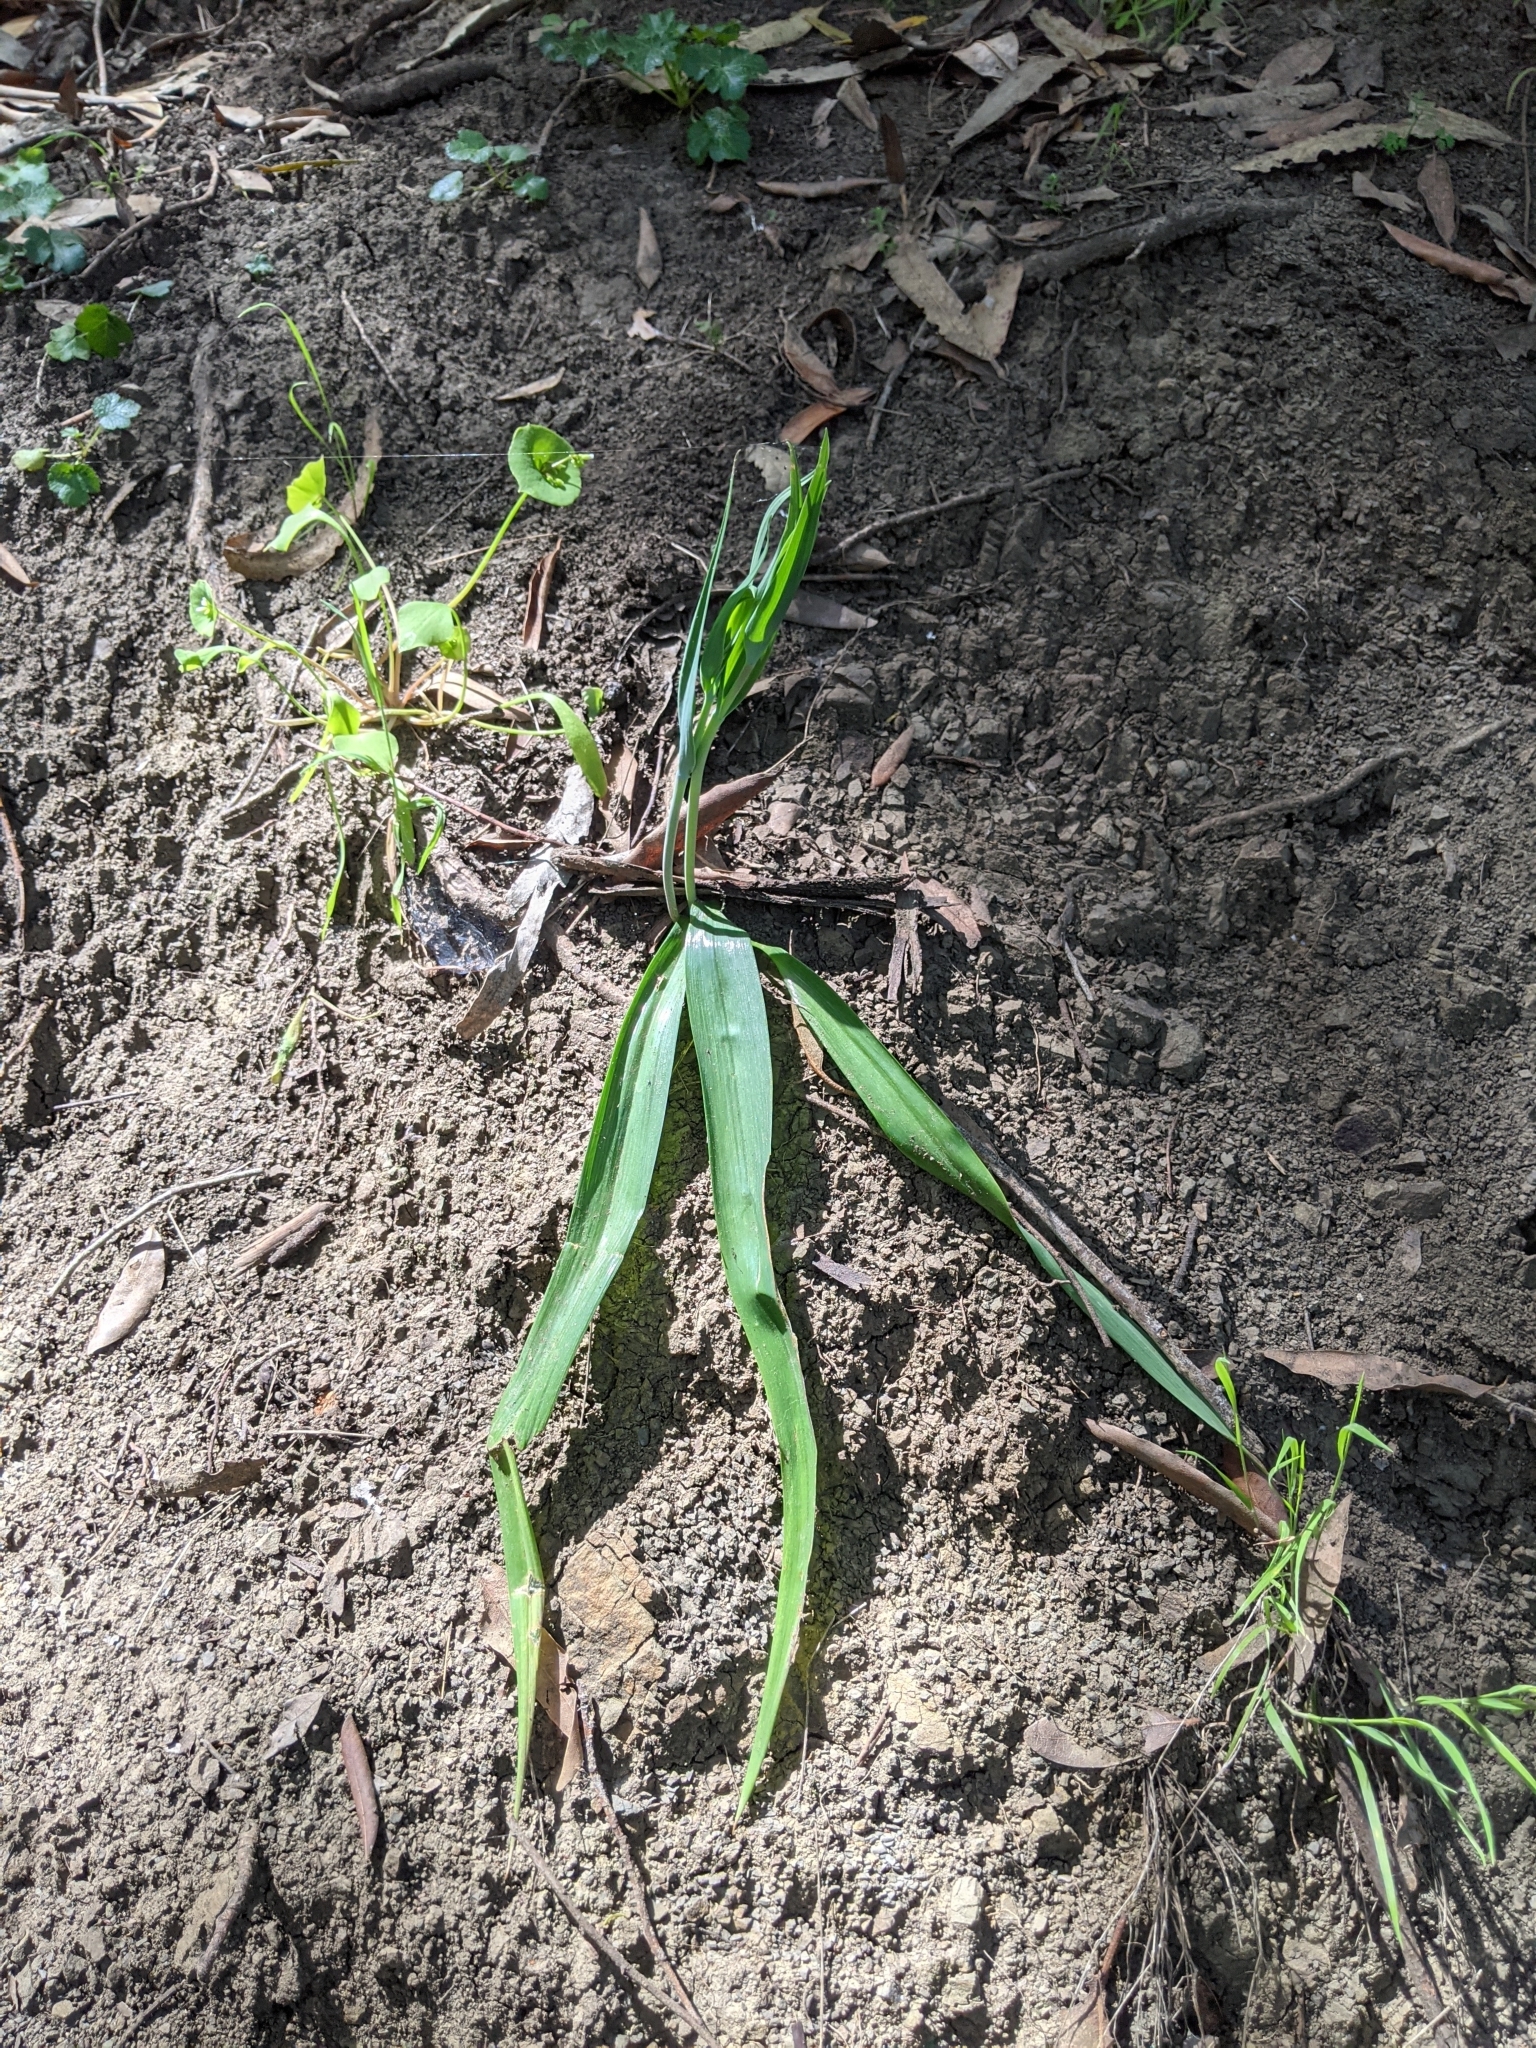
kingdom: Plantae
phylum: Tracheophyta
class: Liliopsida
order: Liliales
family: Liliaceae
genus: Calochortus
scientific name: Calochortus albus
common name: Fairy-lantern
